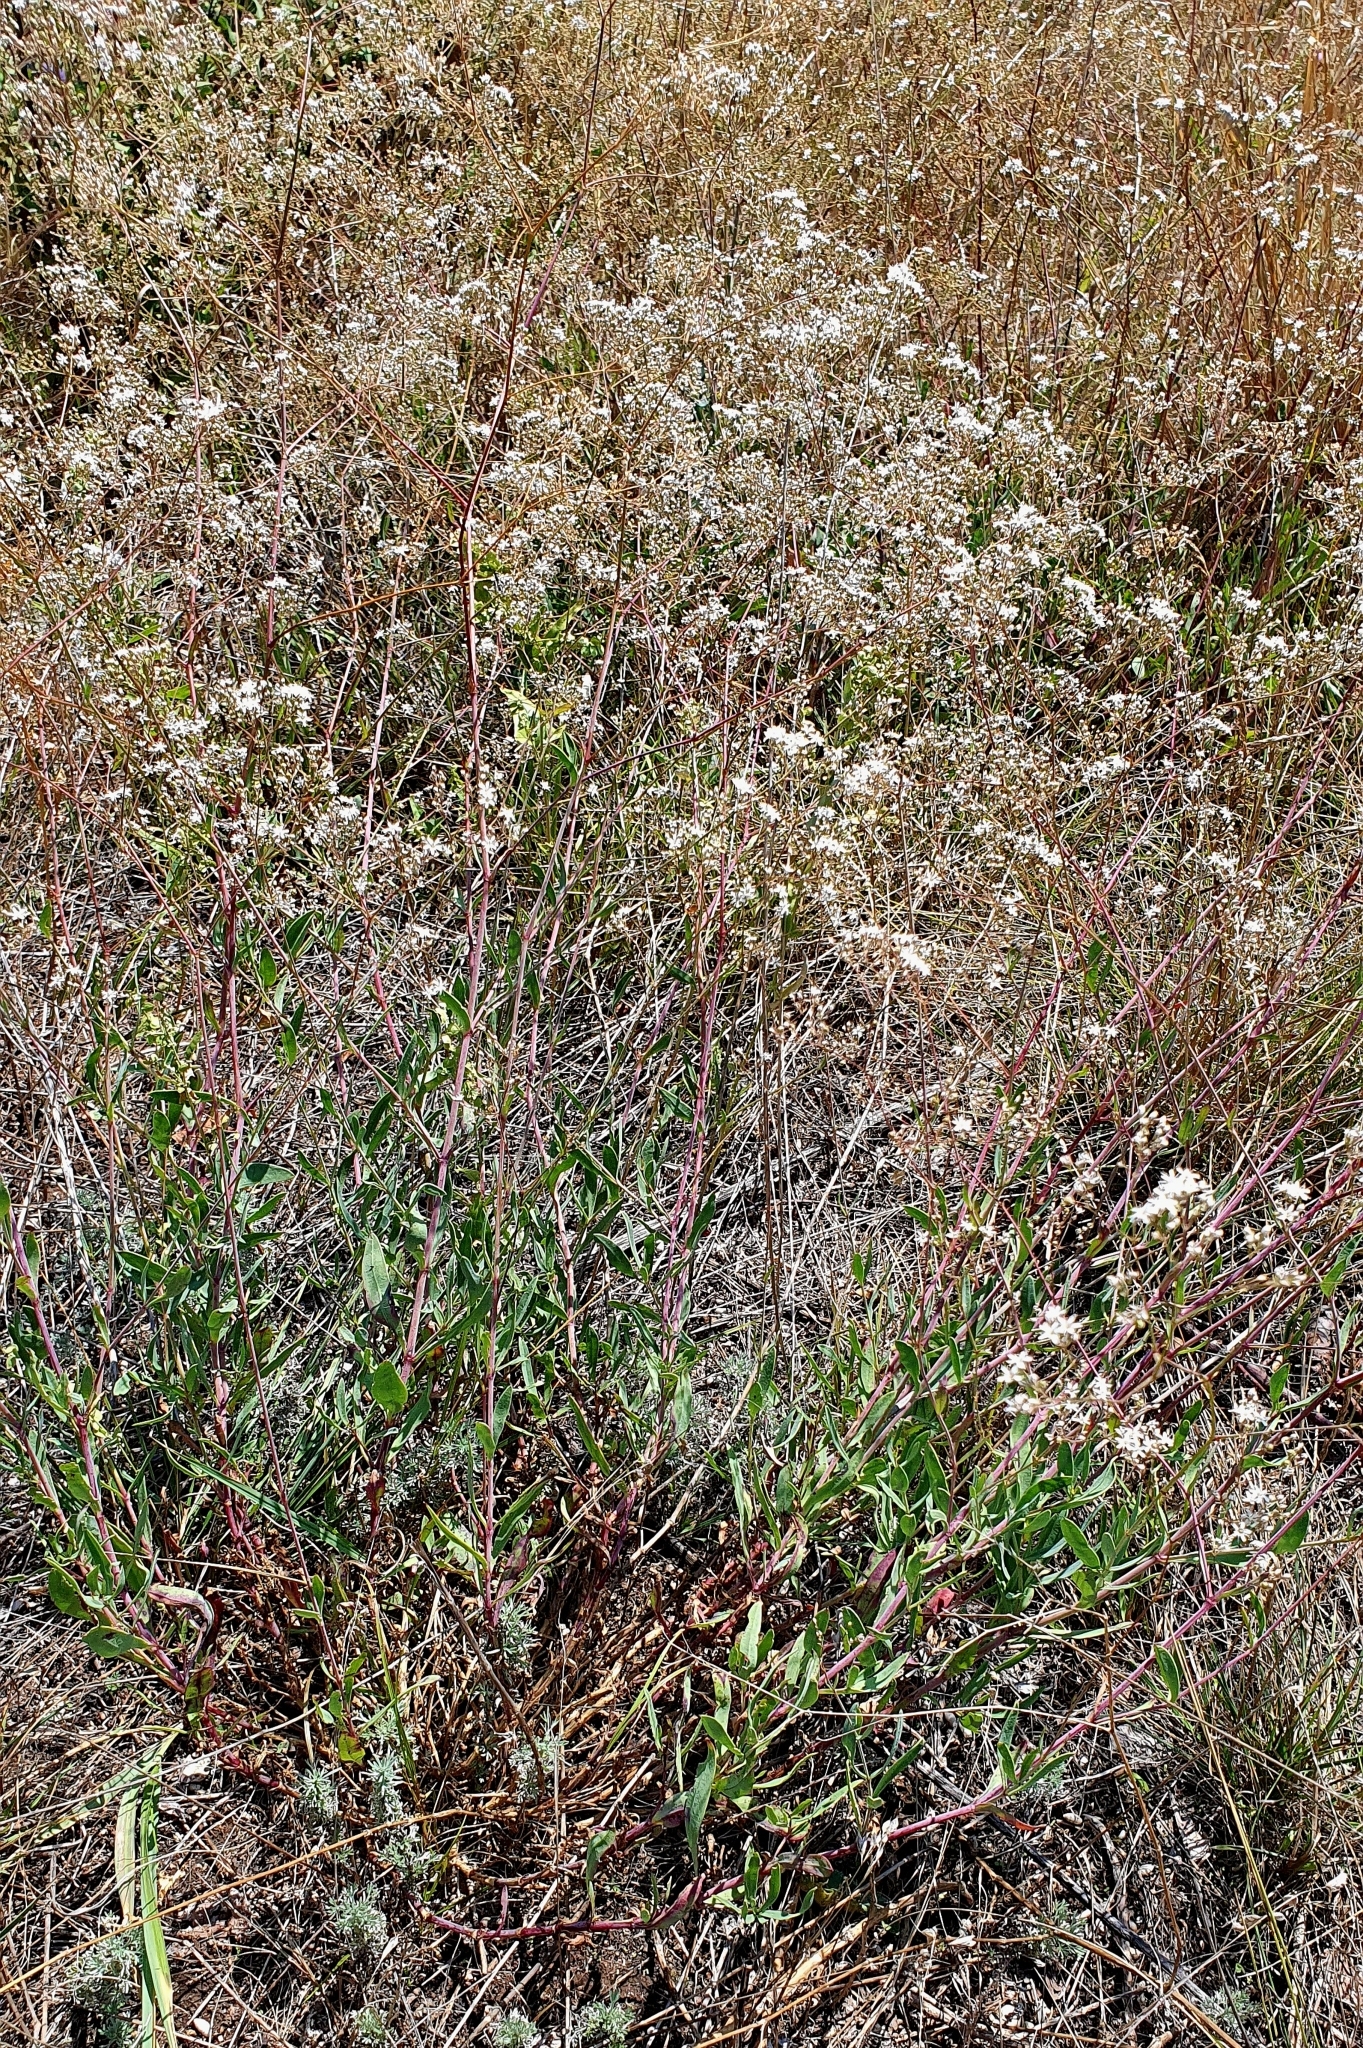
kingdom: Plantae
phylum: Tracheophyta
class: Magnoliopsida
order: Caryophyllales
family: Caryophyllaceae
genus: Gypsophila
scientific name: Gypsophila altissima
